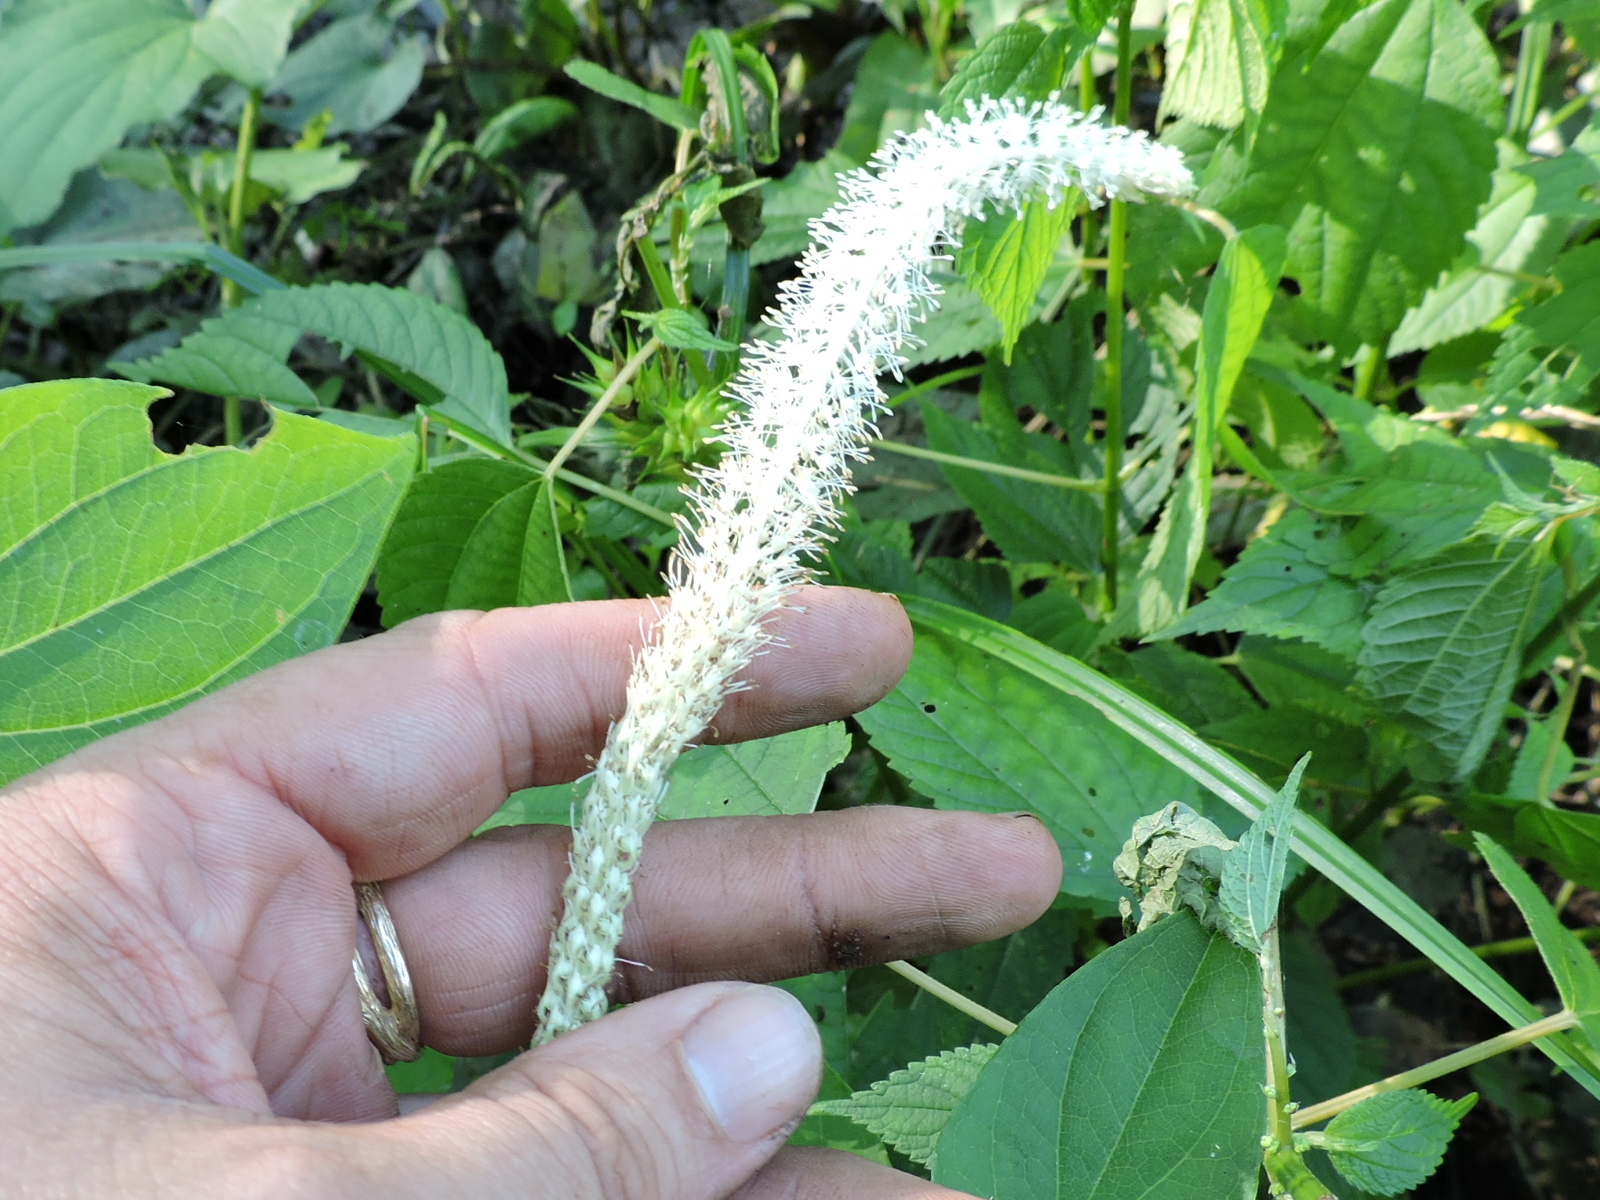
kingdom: Plantae
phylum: Tracheophyta
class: Magnoliopsida
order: Piperales
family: Saururaceae
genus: Saururus
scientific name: Saururus cernuus
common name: Lizard's-tail
